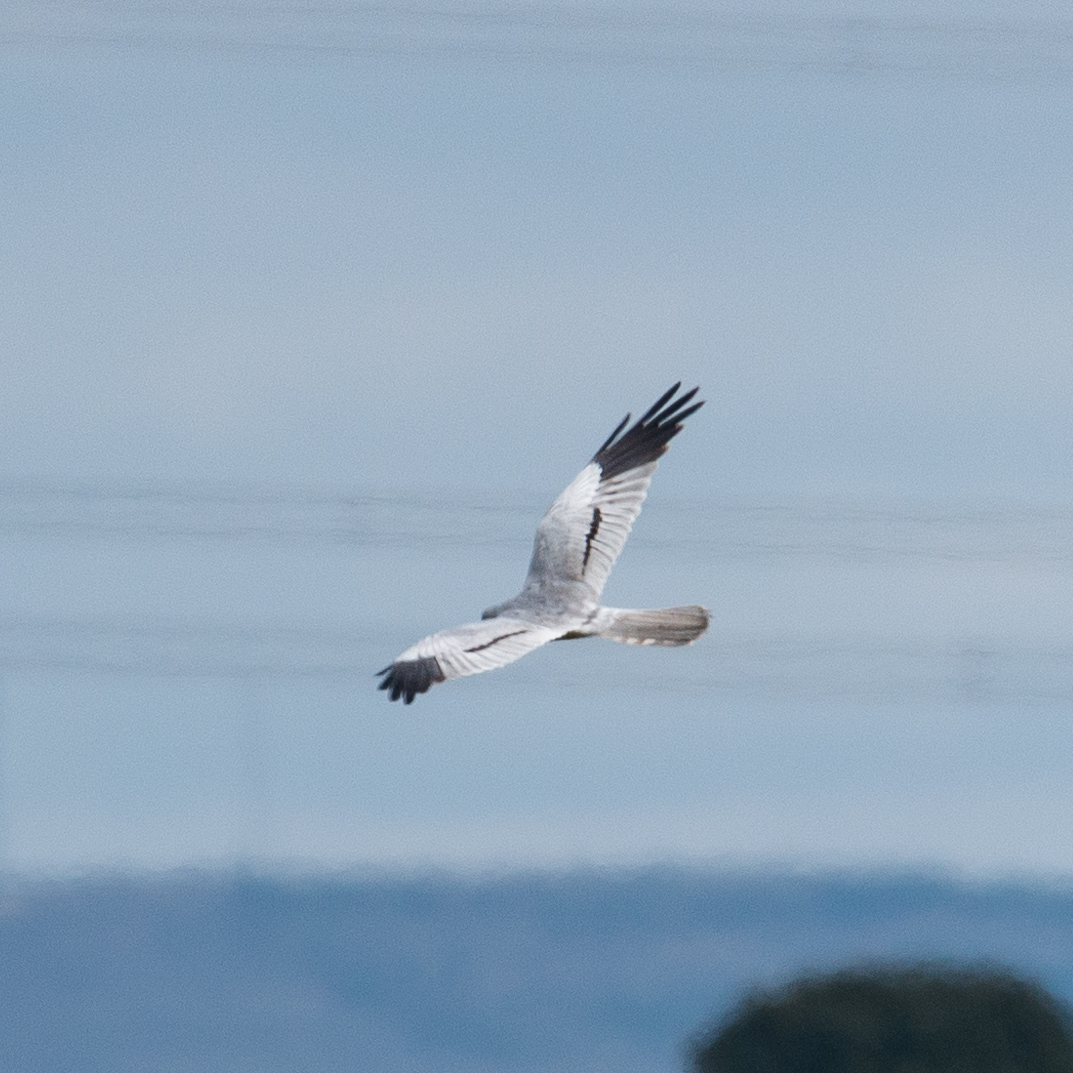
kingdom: Animalia
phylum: Chordata
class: Aves
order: Accipitriformes
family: Accipitridae
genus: Circus
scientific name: Circus pygargus
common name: Montagu's harrier
